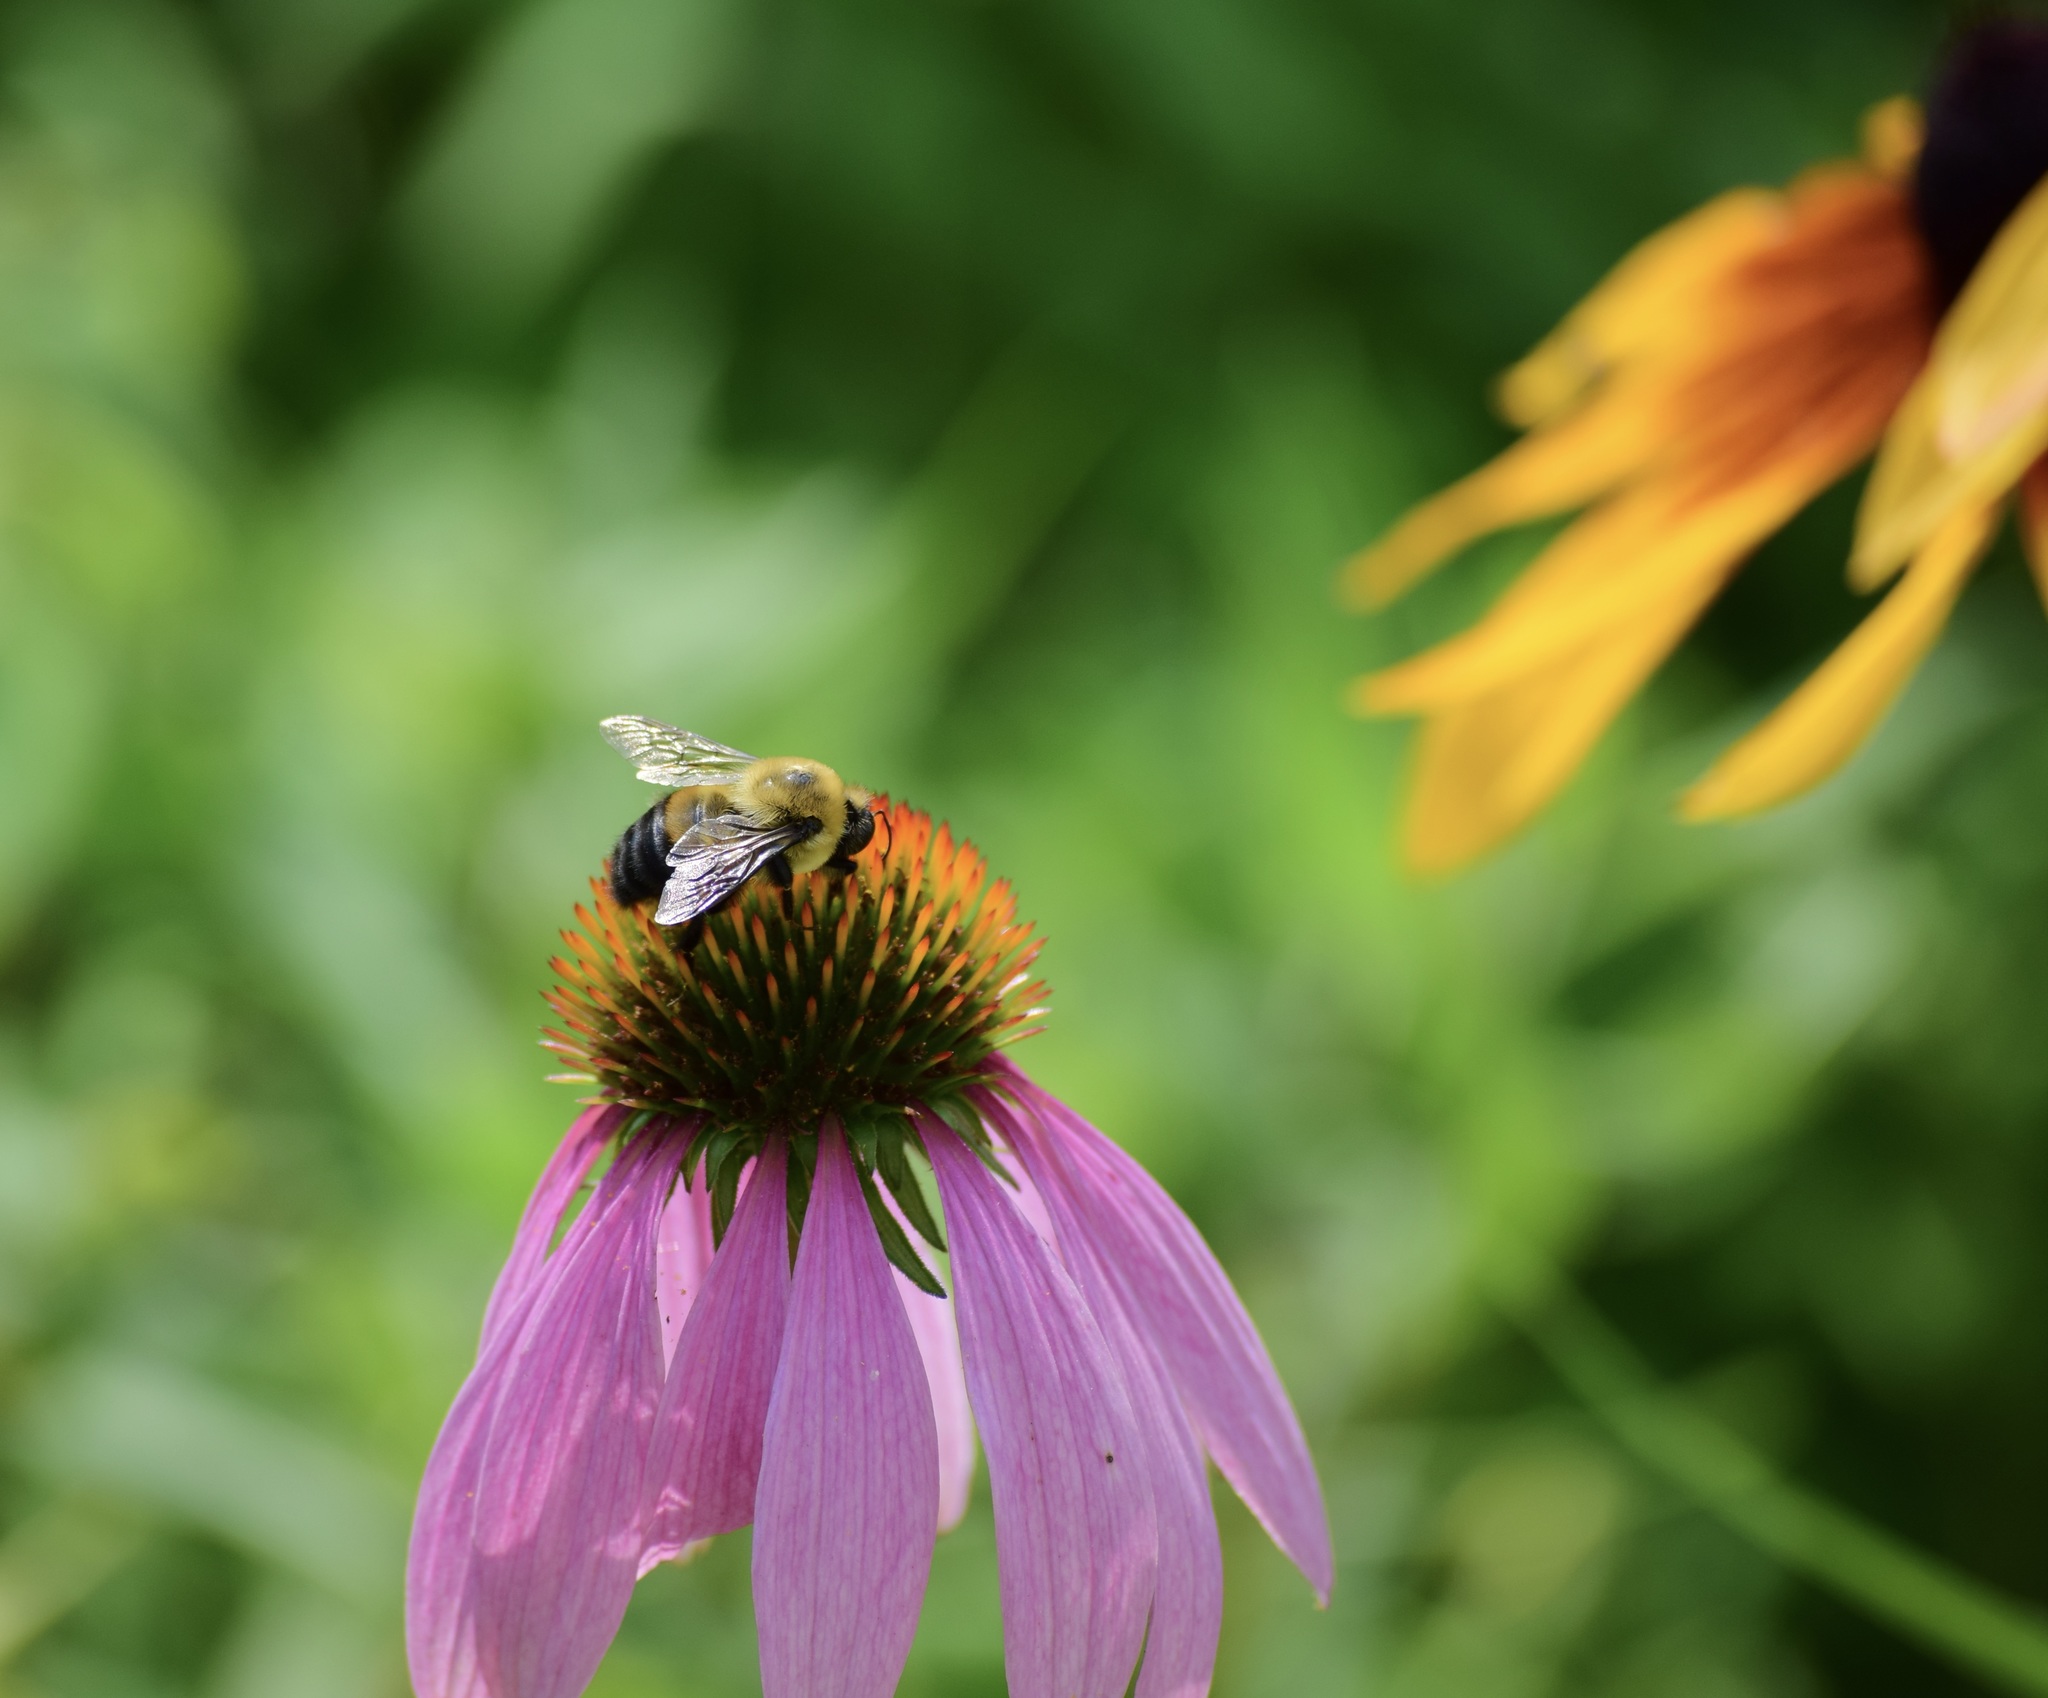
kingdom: Animalia
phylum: Arthropoda
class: Insecta
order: Hymenoptera
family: Apidae
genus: Bombus
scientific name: Bombus griseocollis
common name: Brown-belted bumble bee
